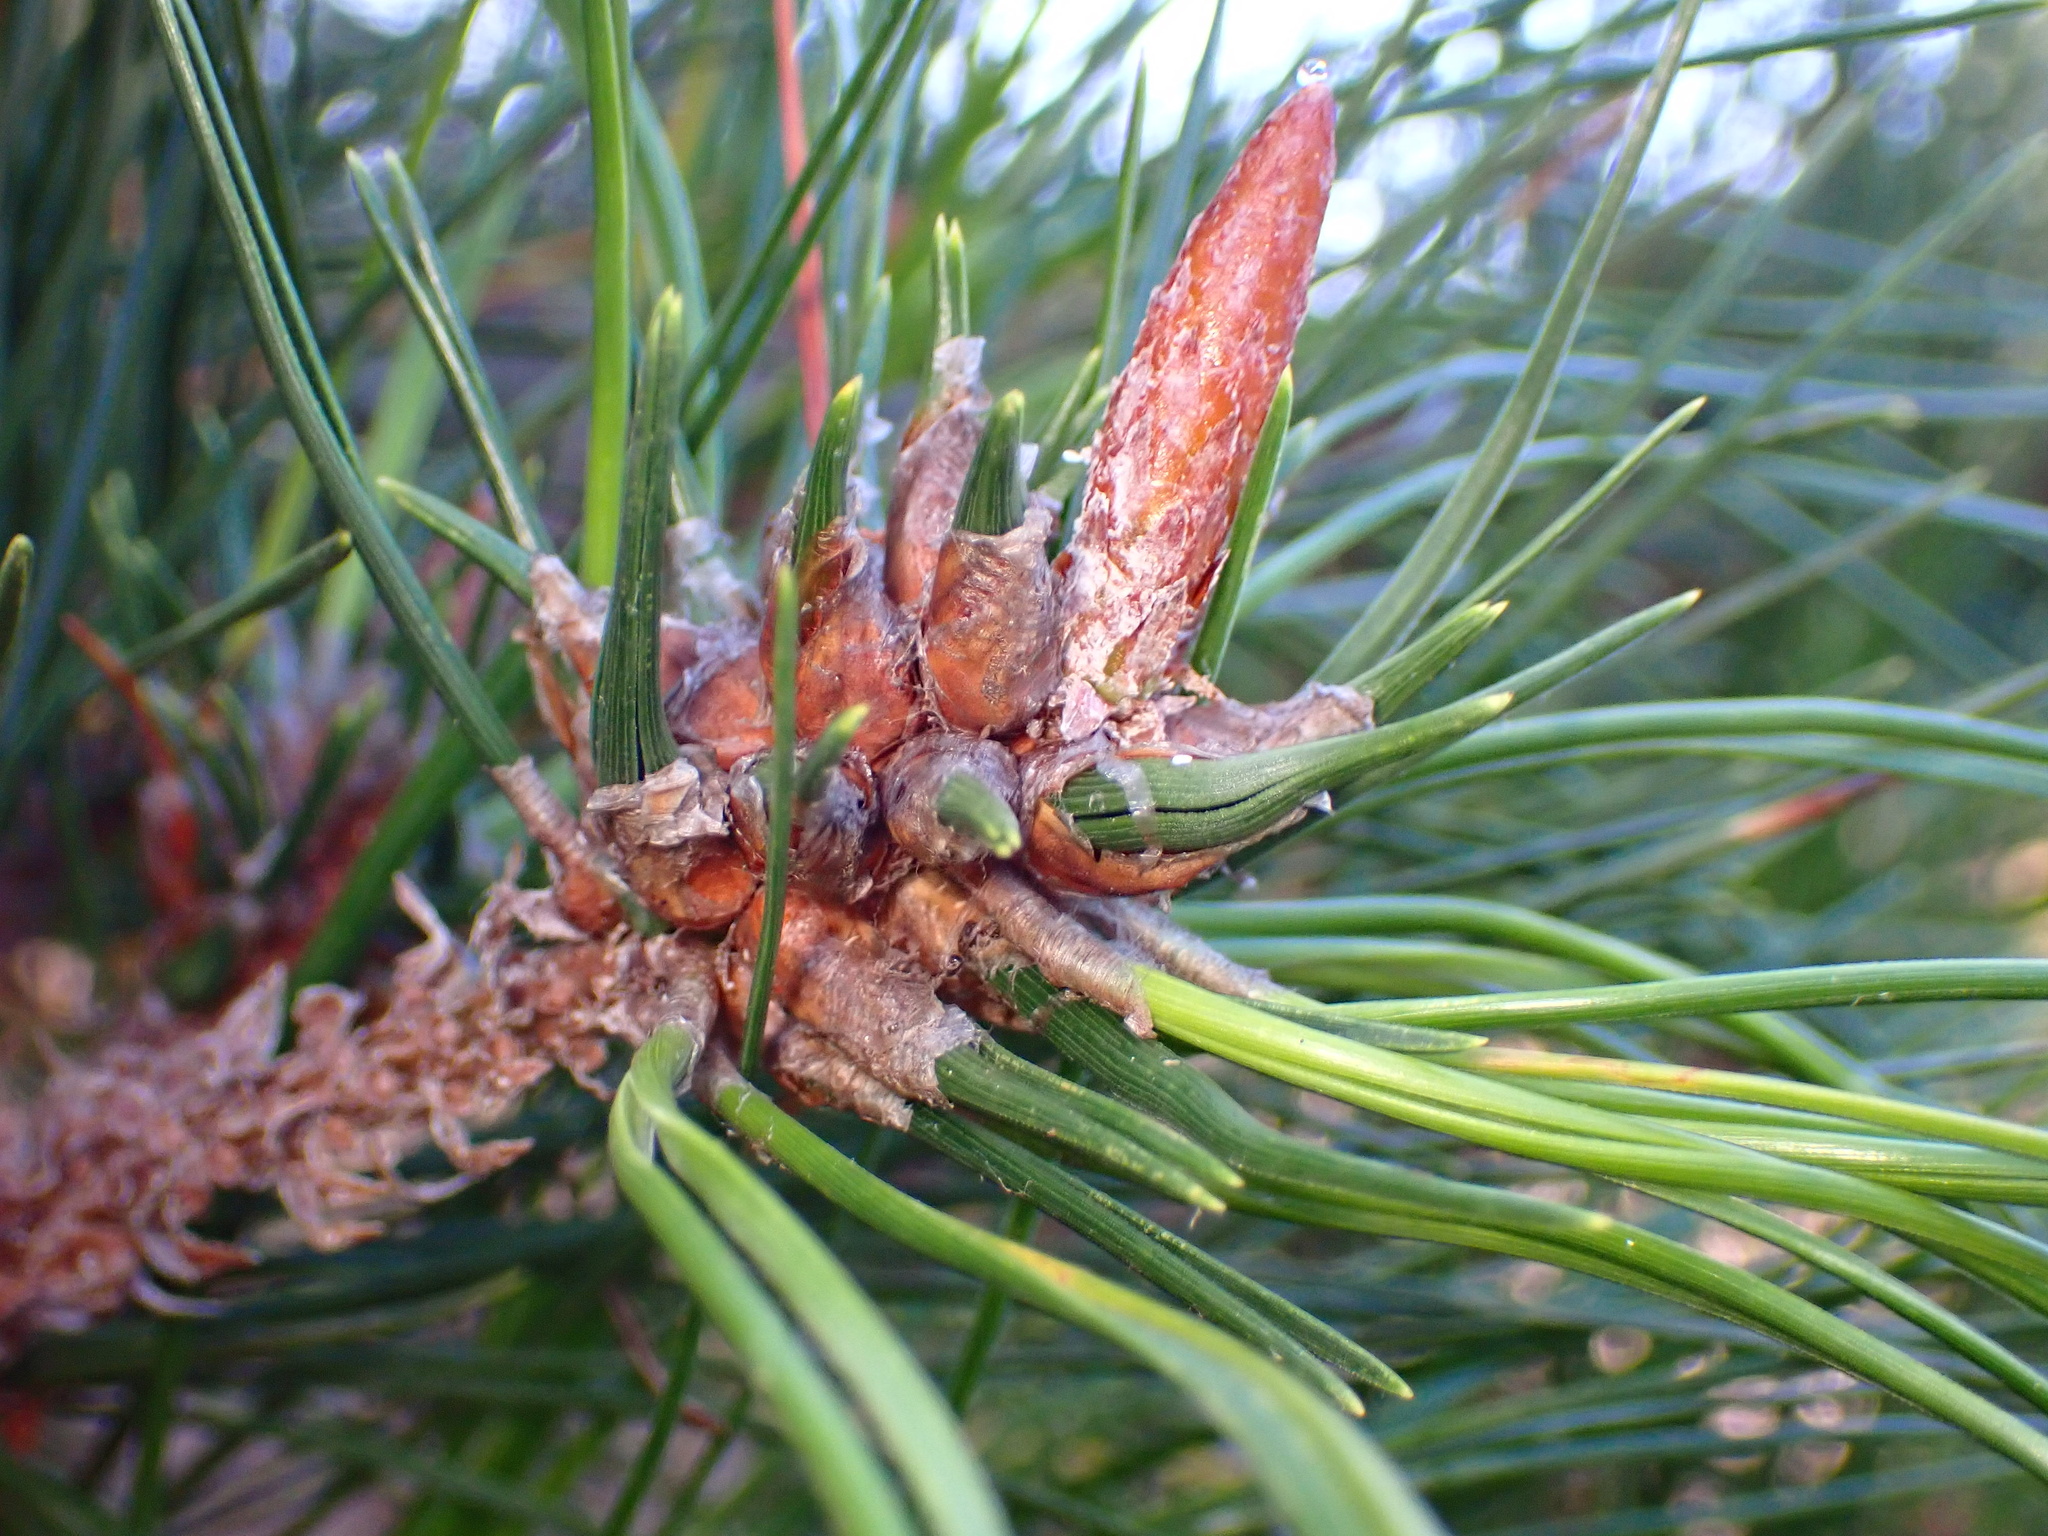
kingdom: Animalia
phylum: Arthropoda
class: Insecta
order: Diptera
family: Cecidomyiidae
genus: Thecodiplosis
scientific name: Thecodiplosis piniradiatae
